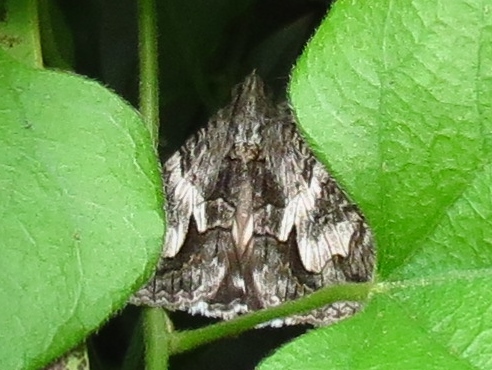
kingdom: Animalia
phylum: Arthropoda
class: Insecta
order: Lepidoptera
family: Erebidae
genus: Melipotis
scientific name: Melipotis jucunda
